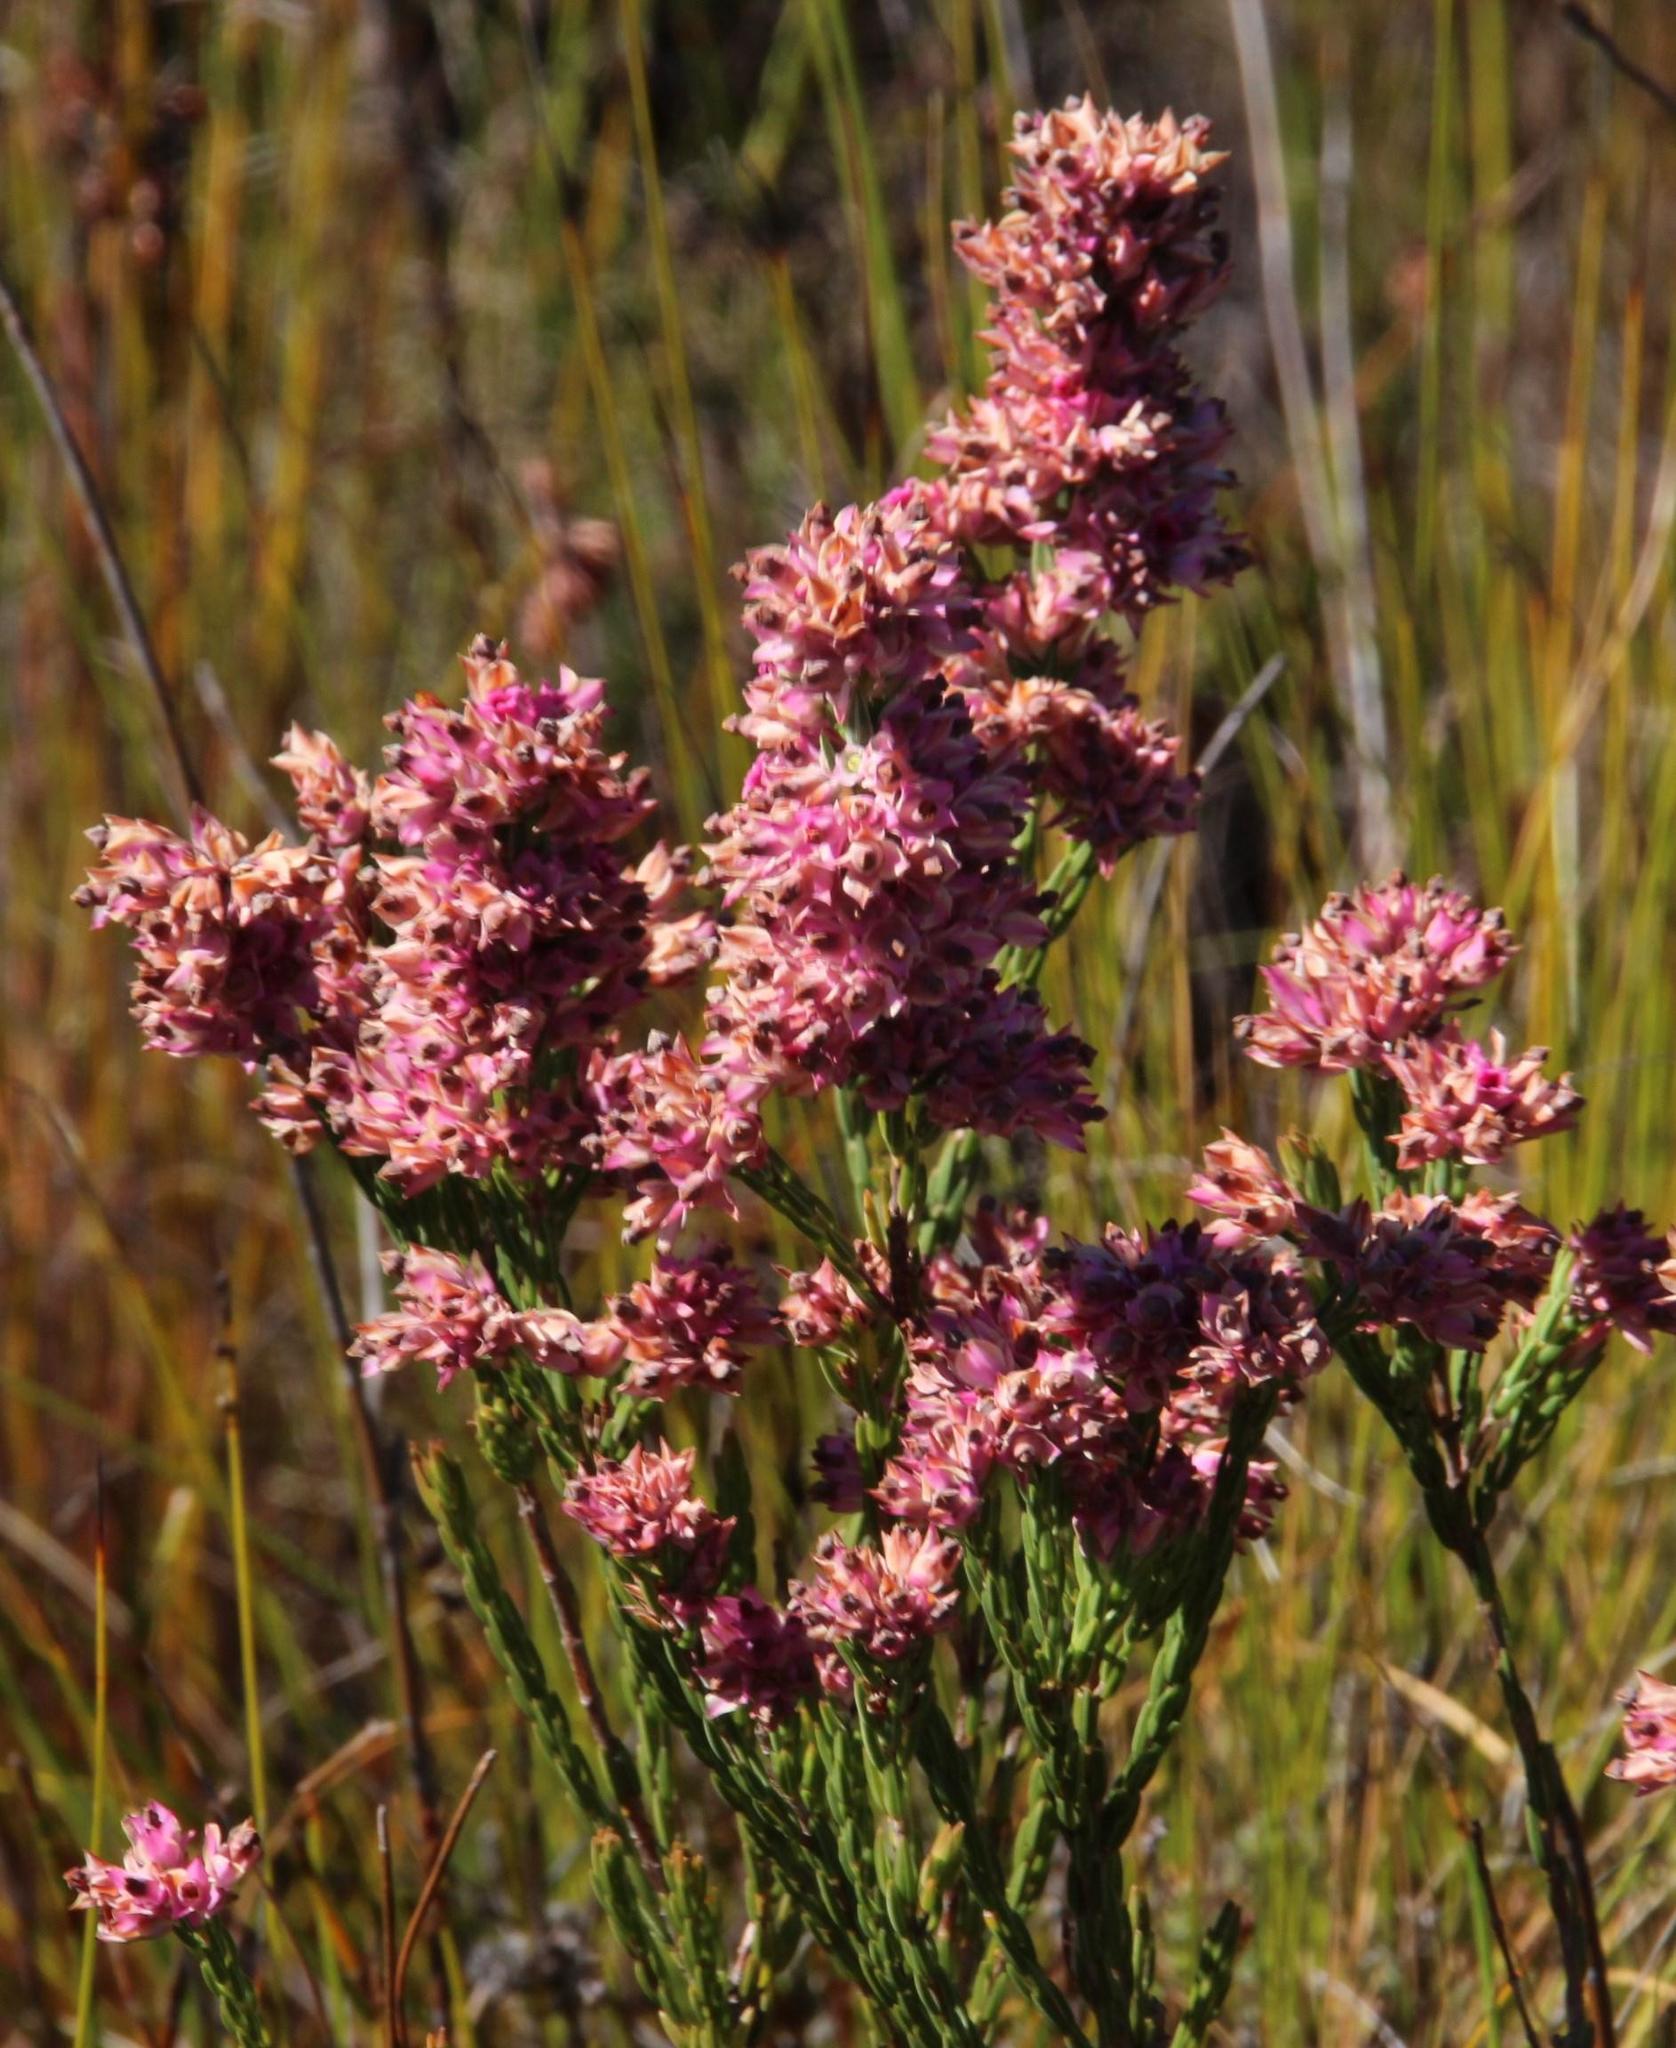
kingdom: Plantae
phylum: Tracheophyta
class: Magnoliopsida
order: Ericales
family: Ericaceae
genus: Erica
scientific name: Erica taxifolia
